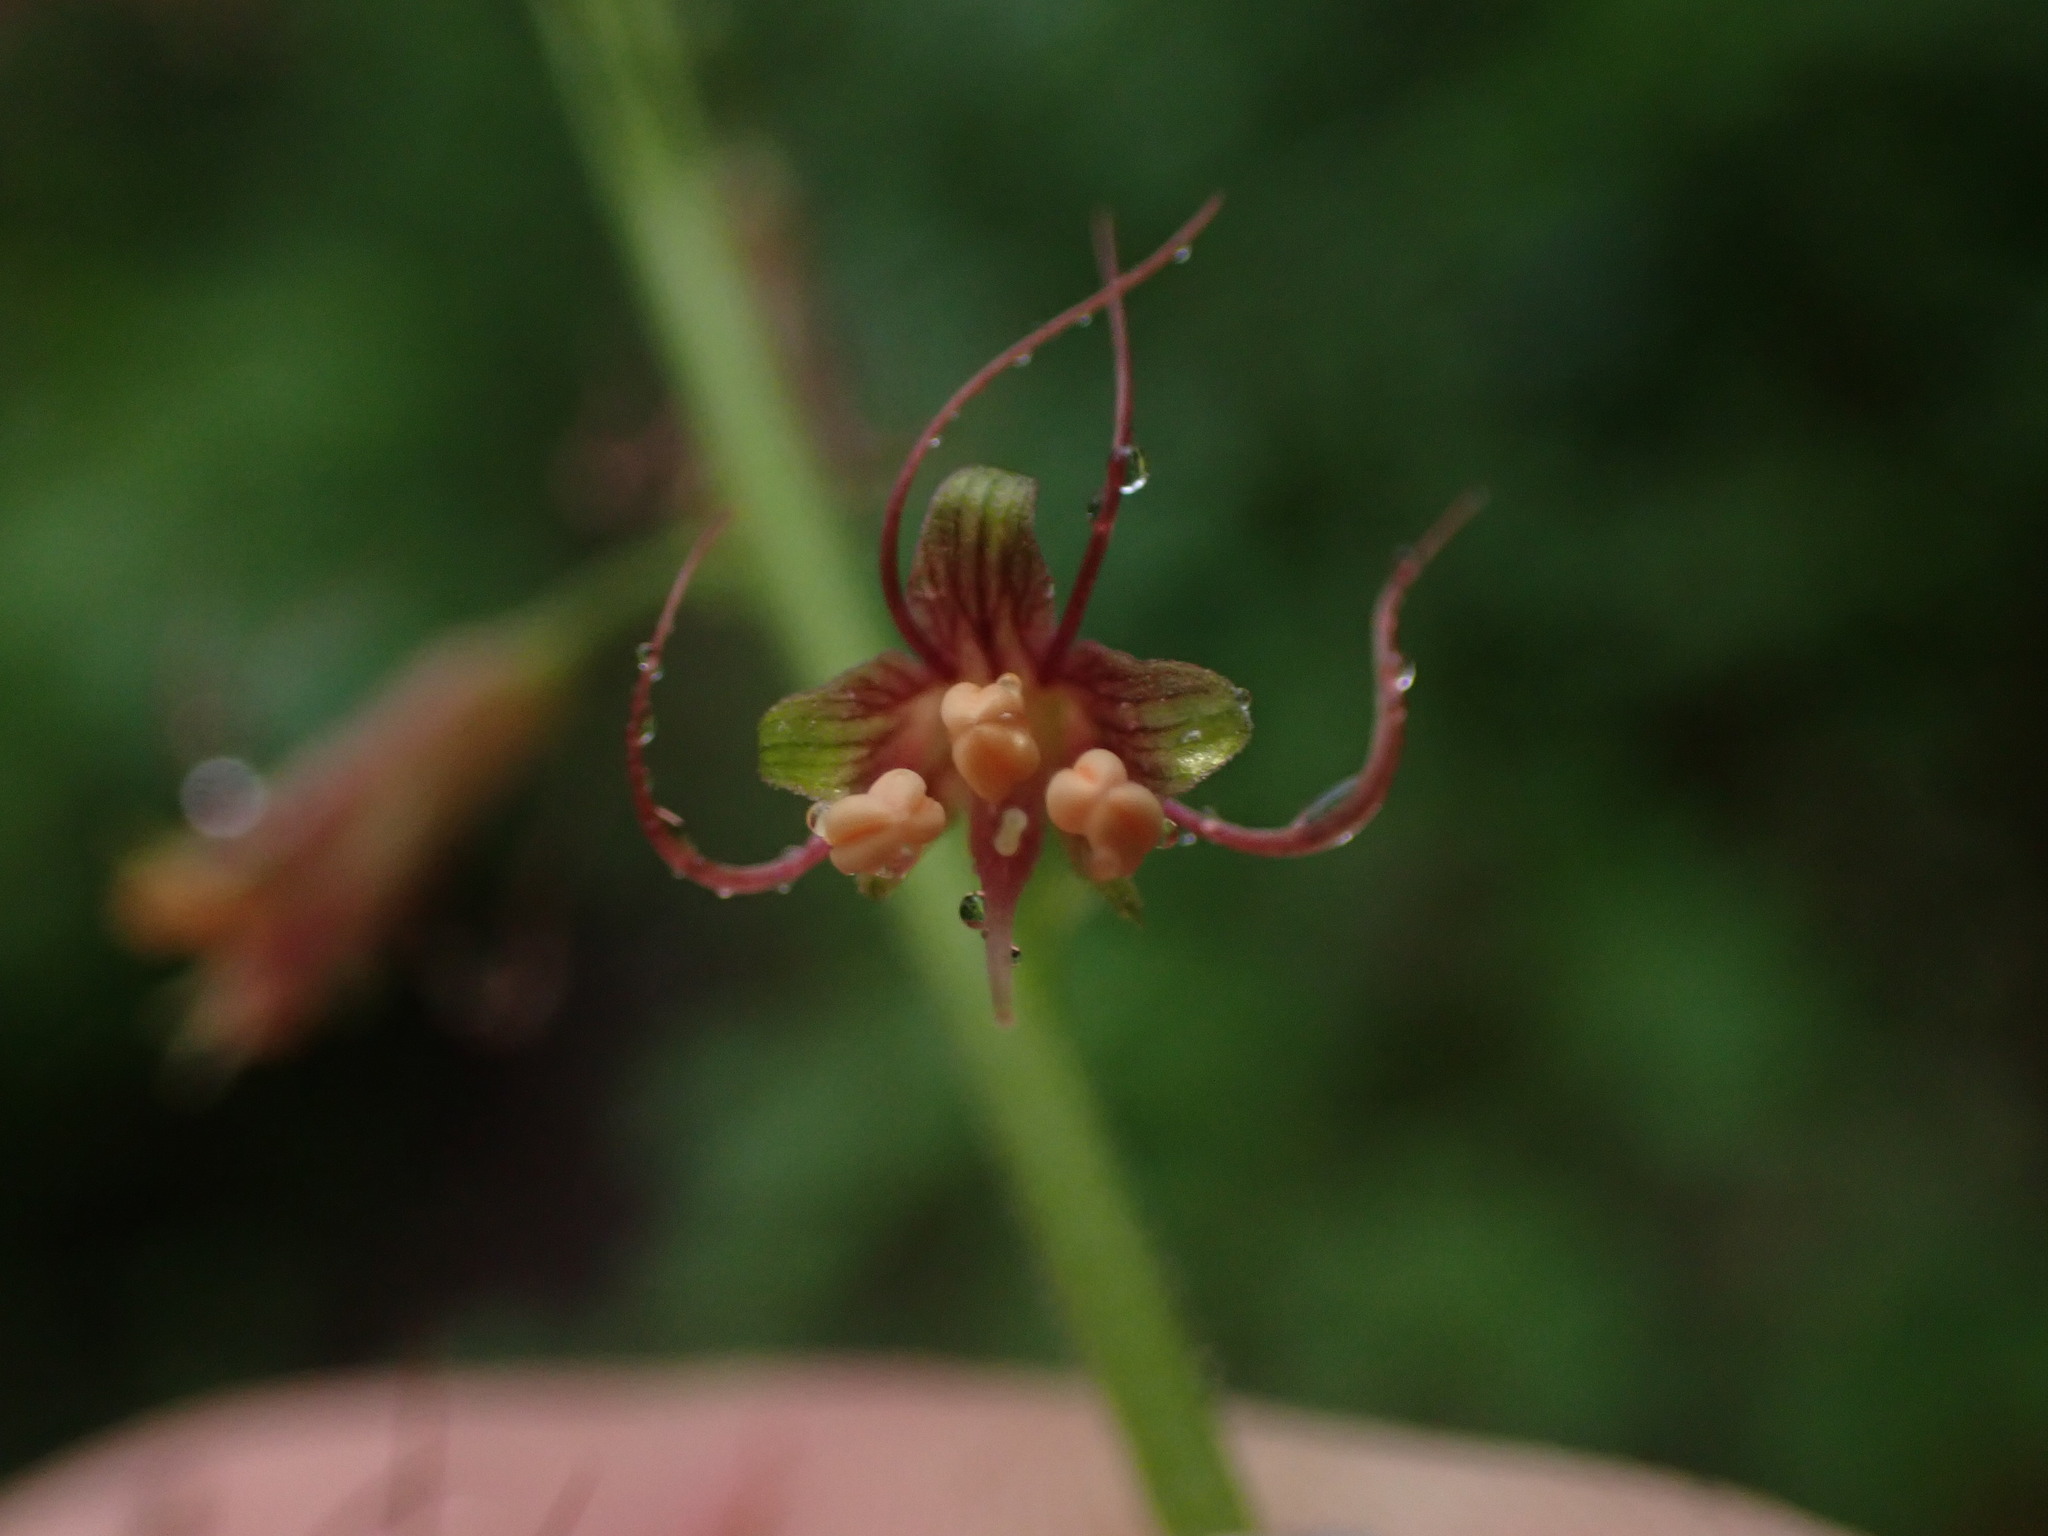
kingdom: Plantae
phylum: Tracheophyta
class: Magnoliopsida
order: Saxifragales
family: Saxifragaceae
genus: Tolmiea
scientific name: Tolmiea menziesii
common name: Pick-a-back-plant
